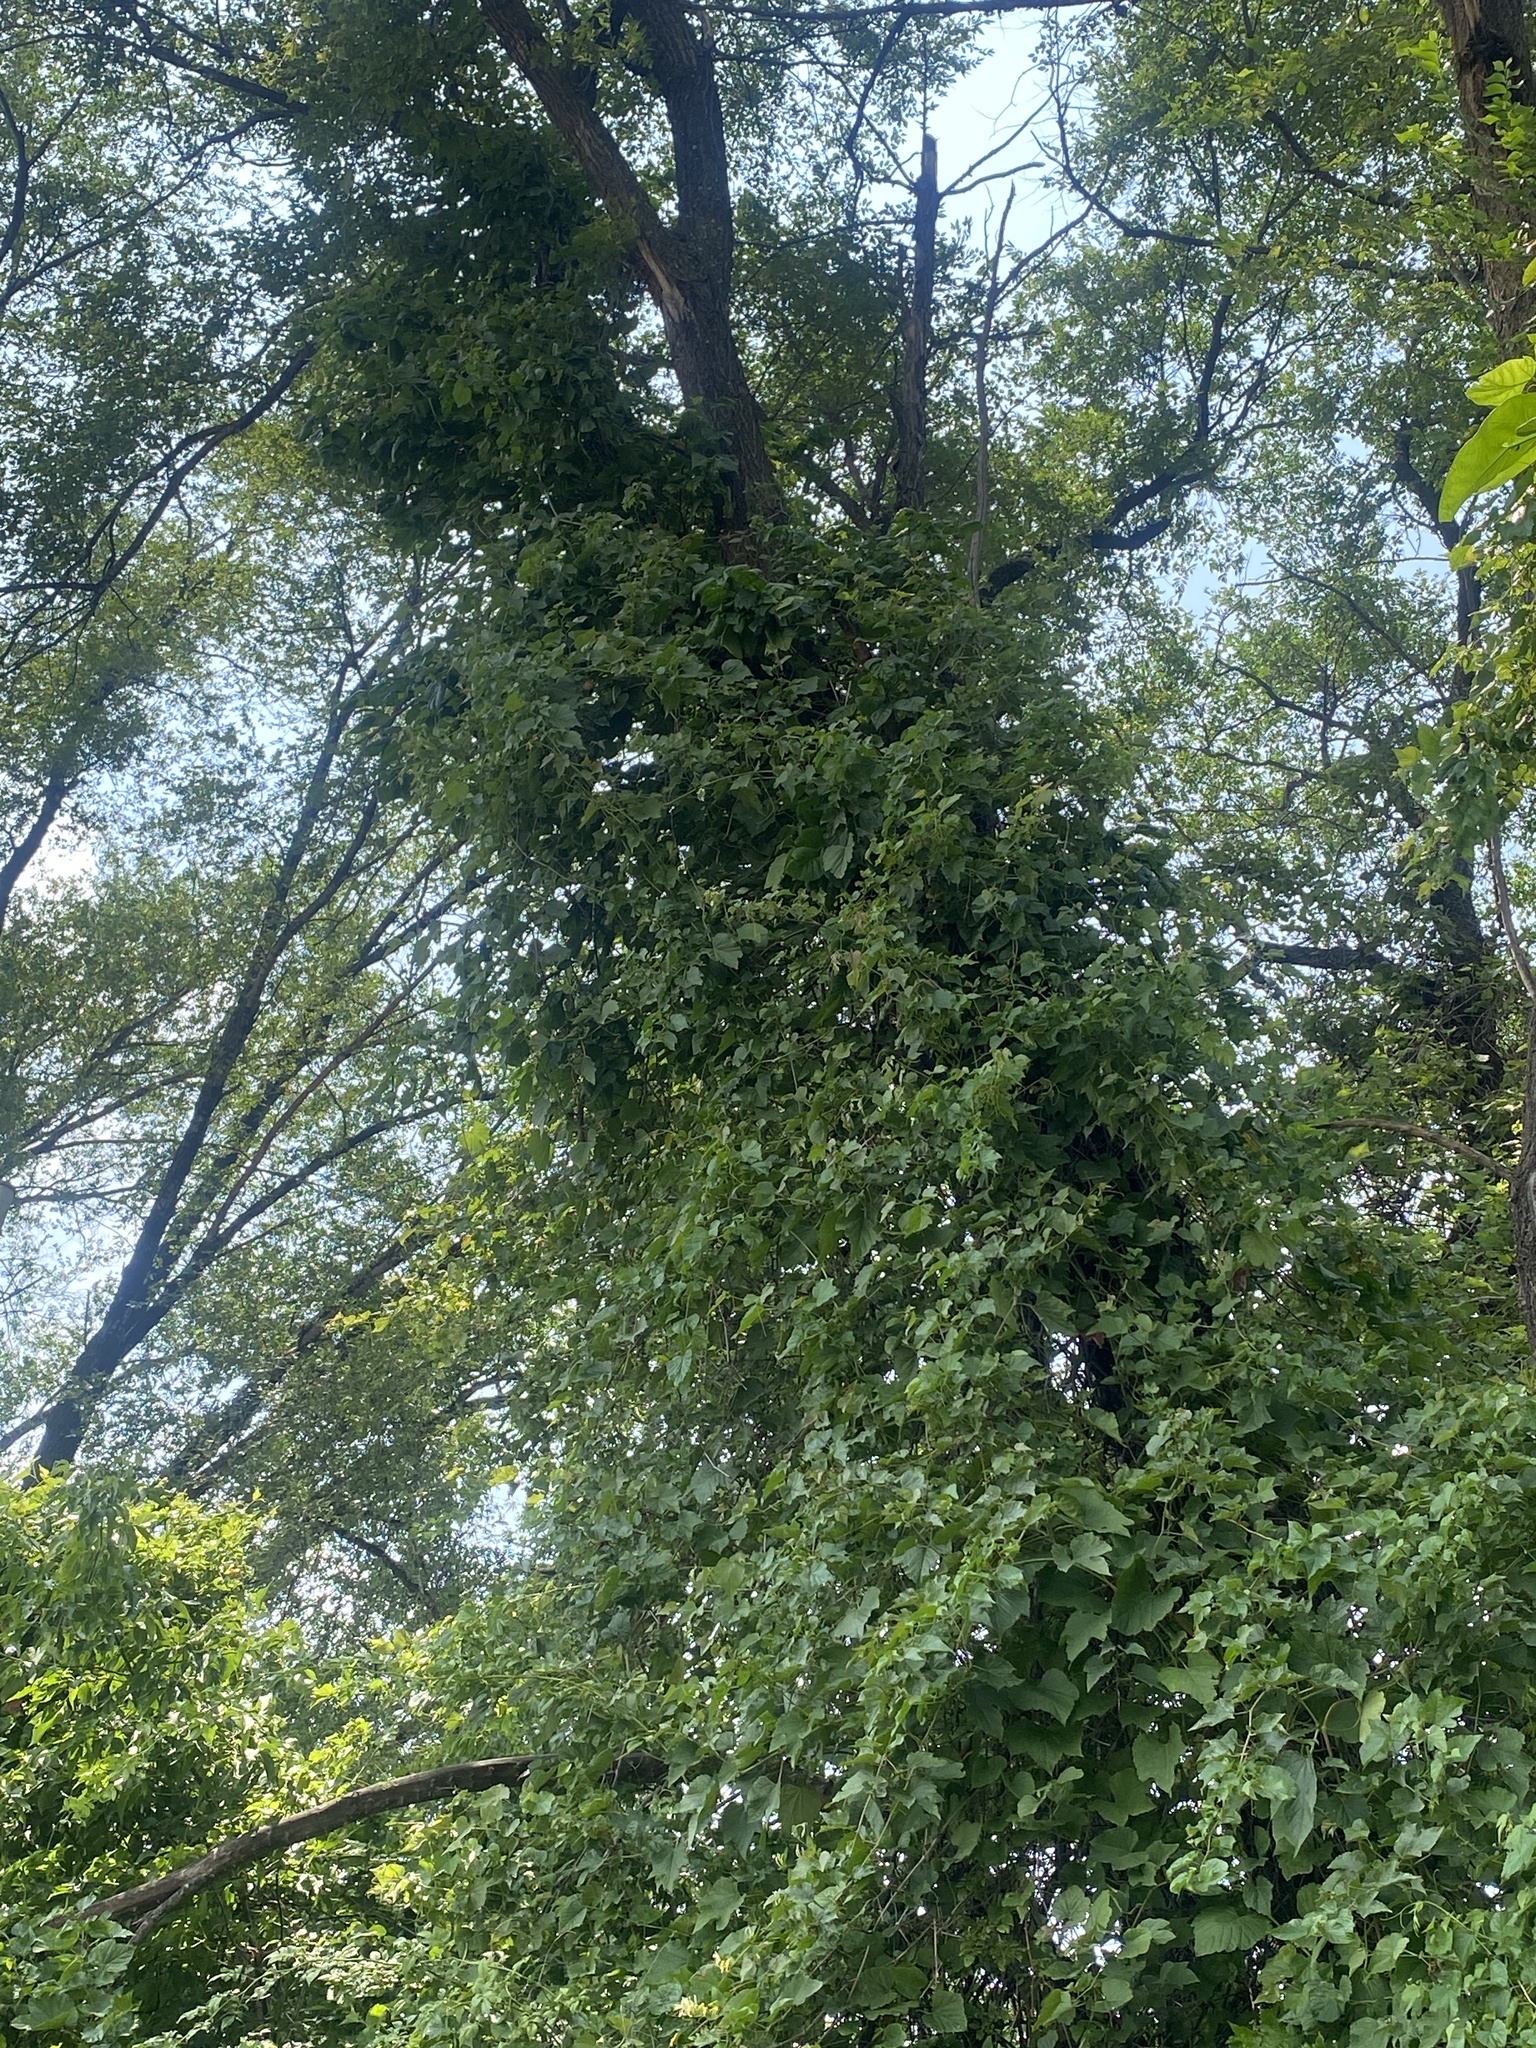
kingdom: Plantae
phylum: Tracheophyta
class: Magnoliopsida
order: Vitales
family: Vitaceae
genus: Ampelopsis
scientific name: Ampelopsis glandulosa
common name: Amur peppervine
